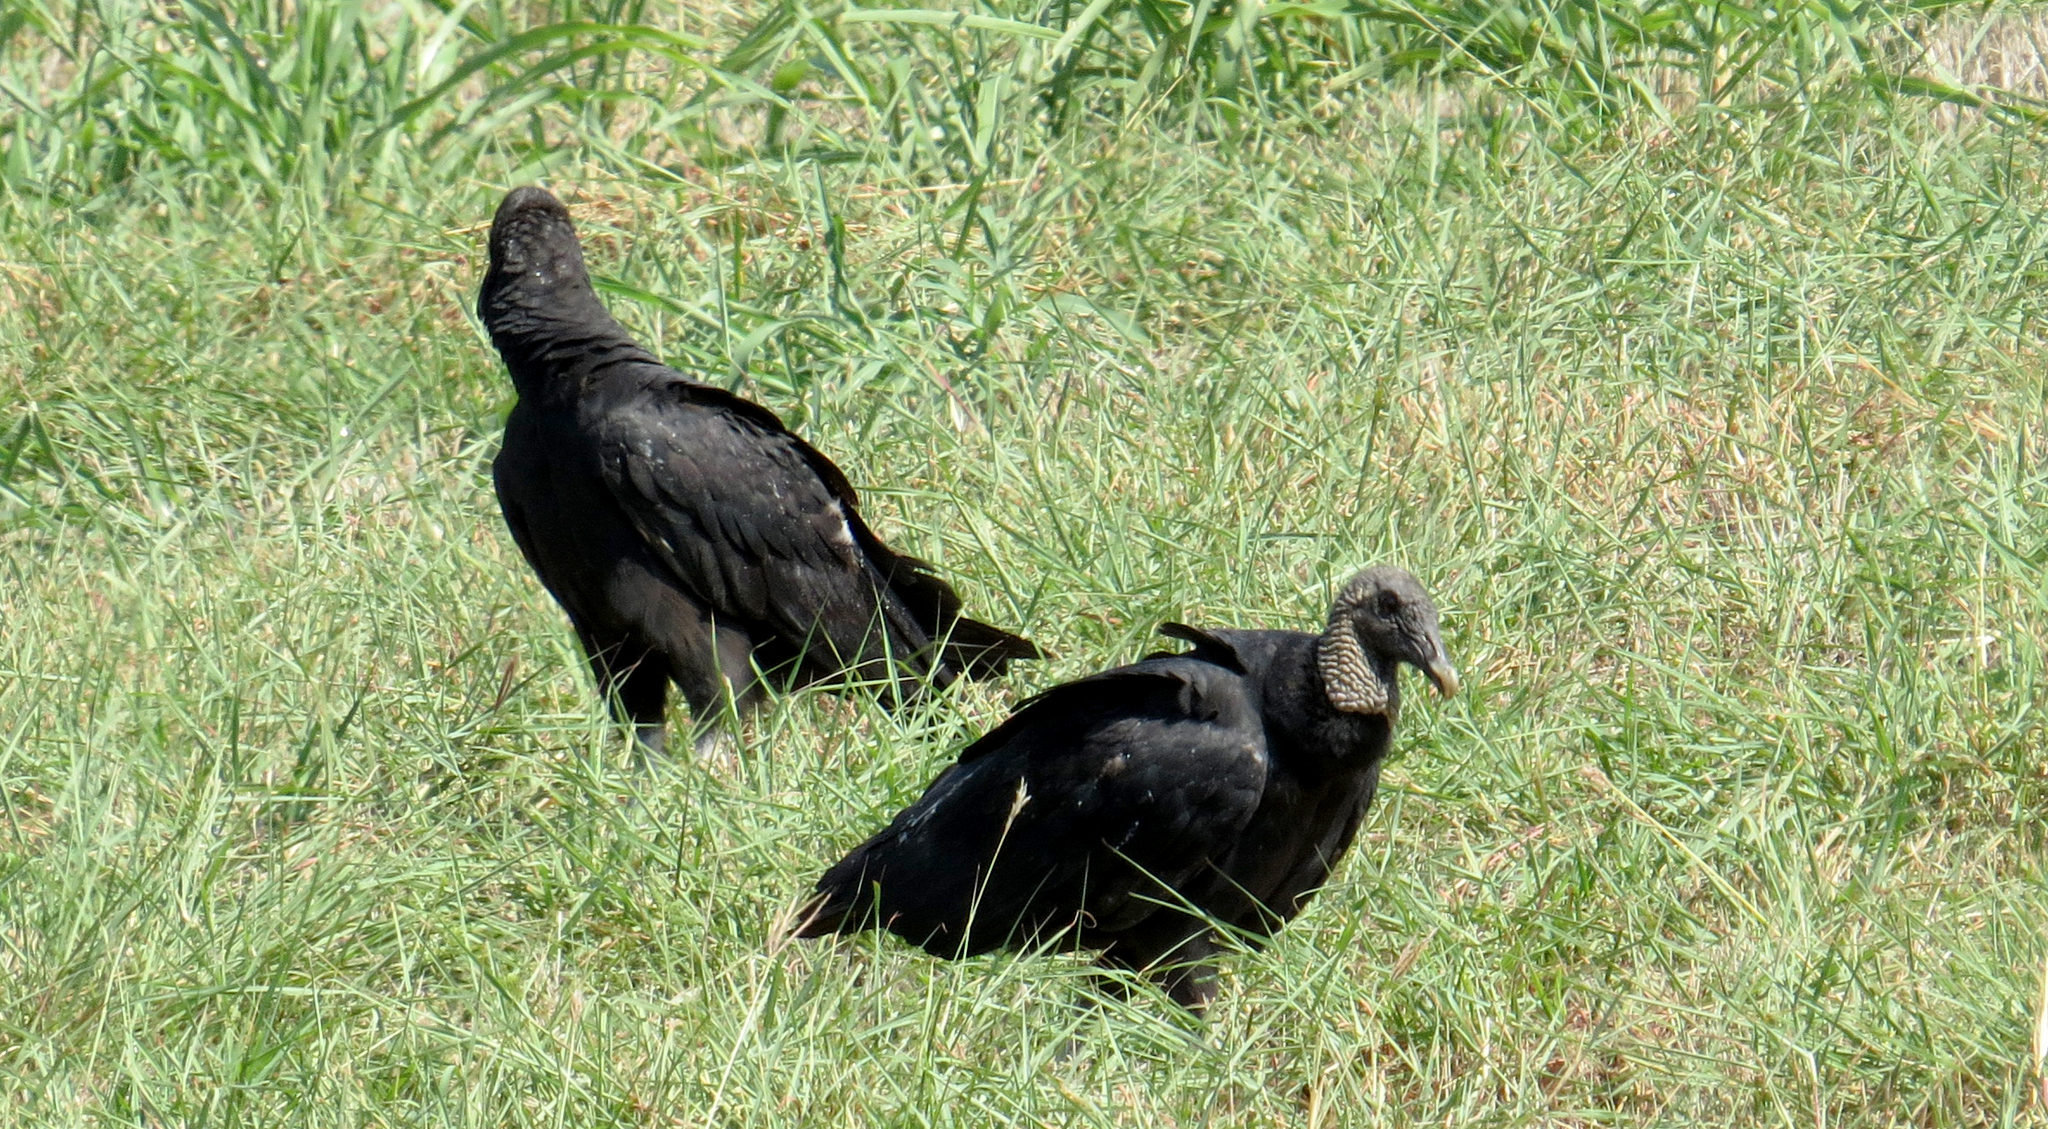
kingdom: Animalia
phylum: Chordata
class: Aves
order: Accipitriformes
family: Cathartidae
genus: Coragyps
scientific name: Coragyps atratus
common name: Black vulture
